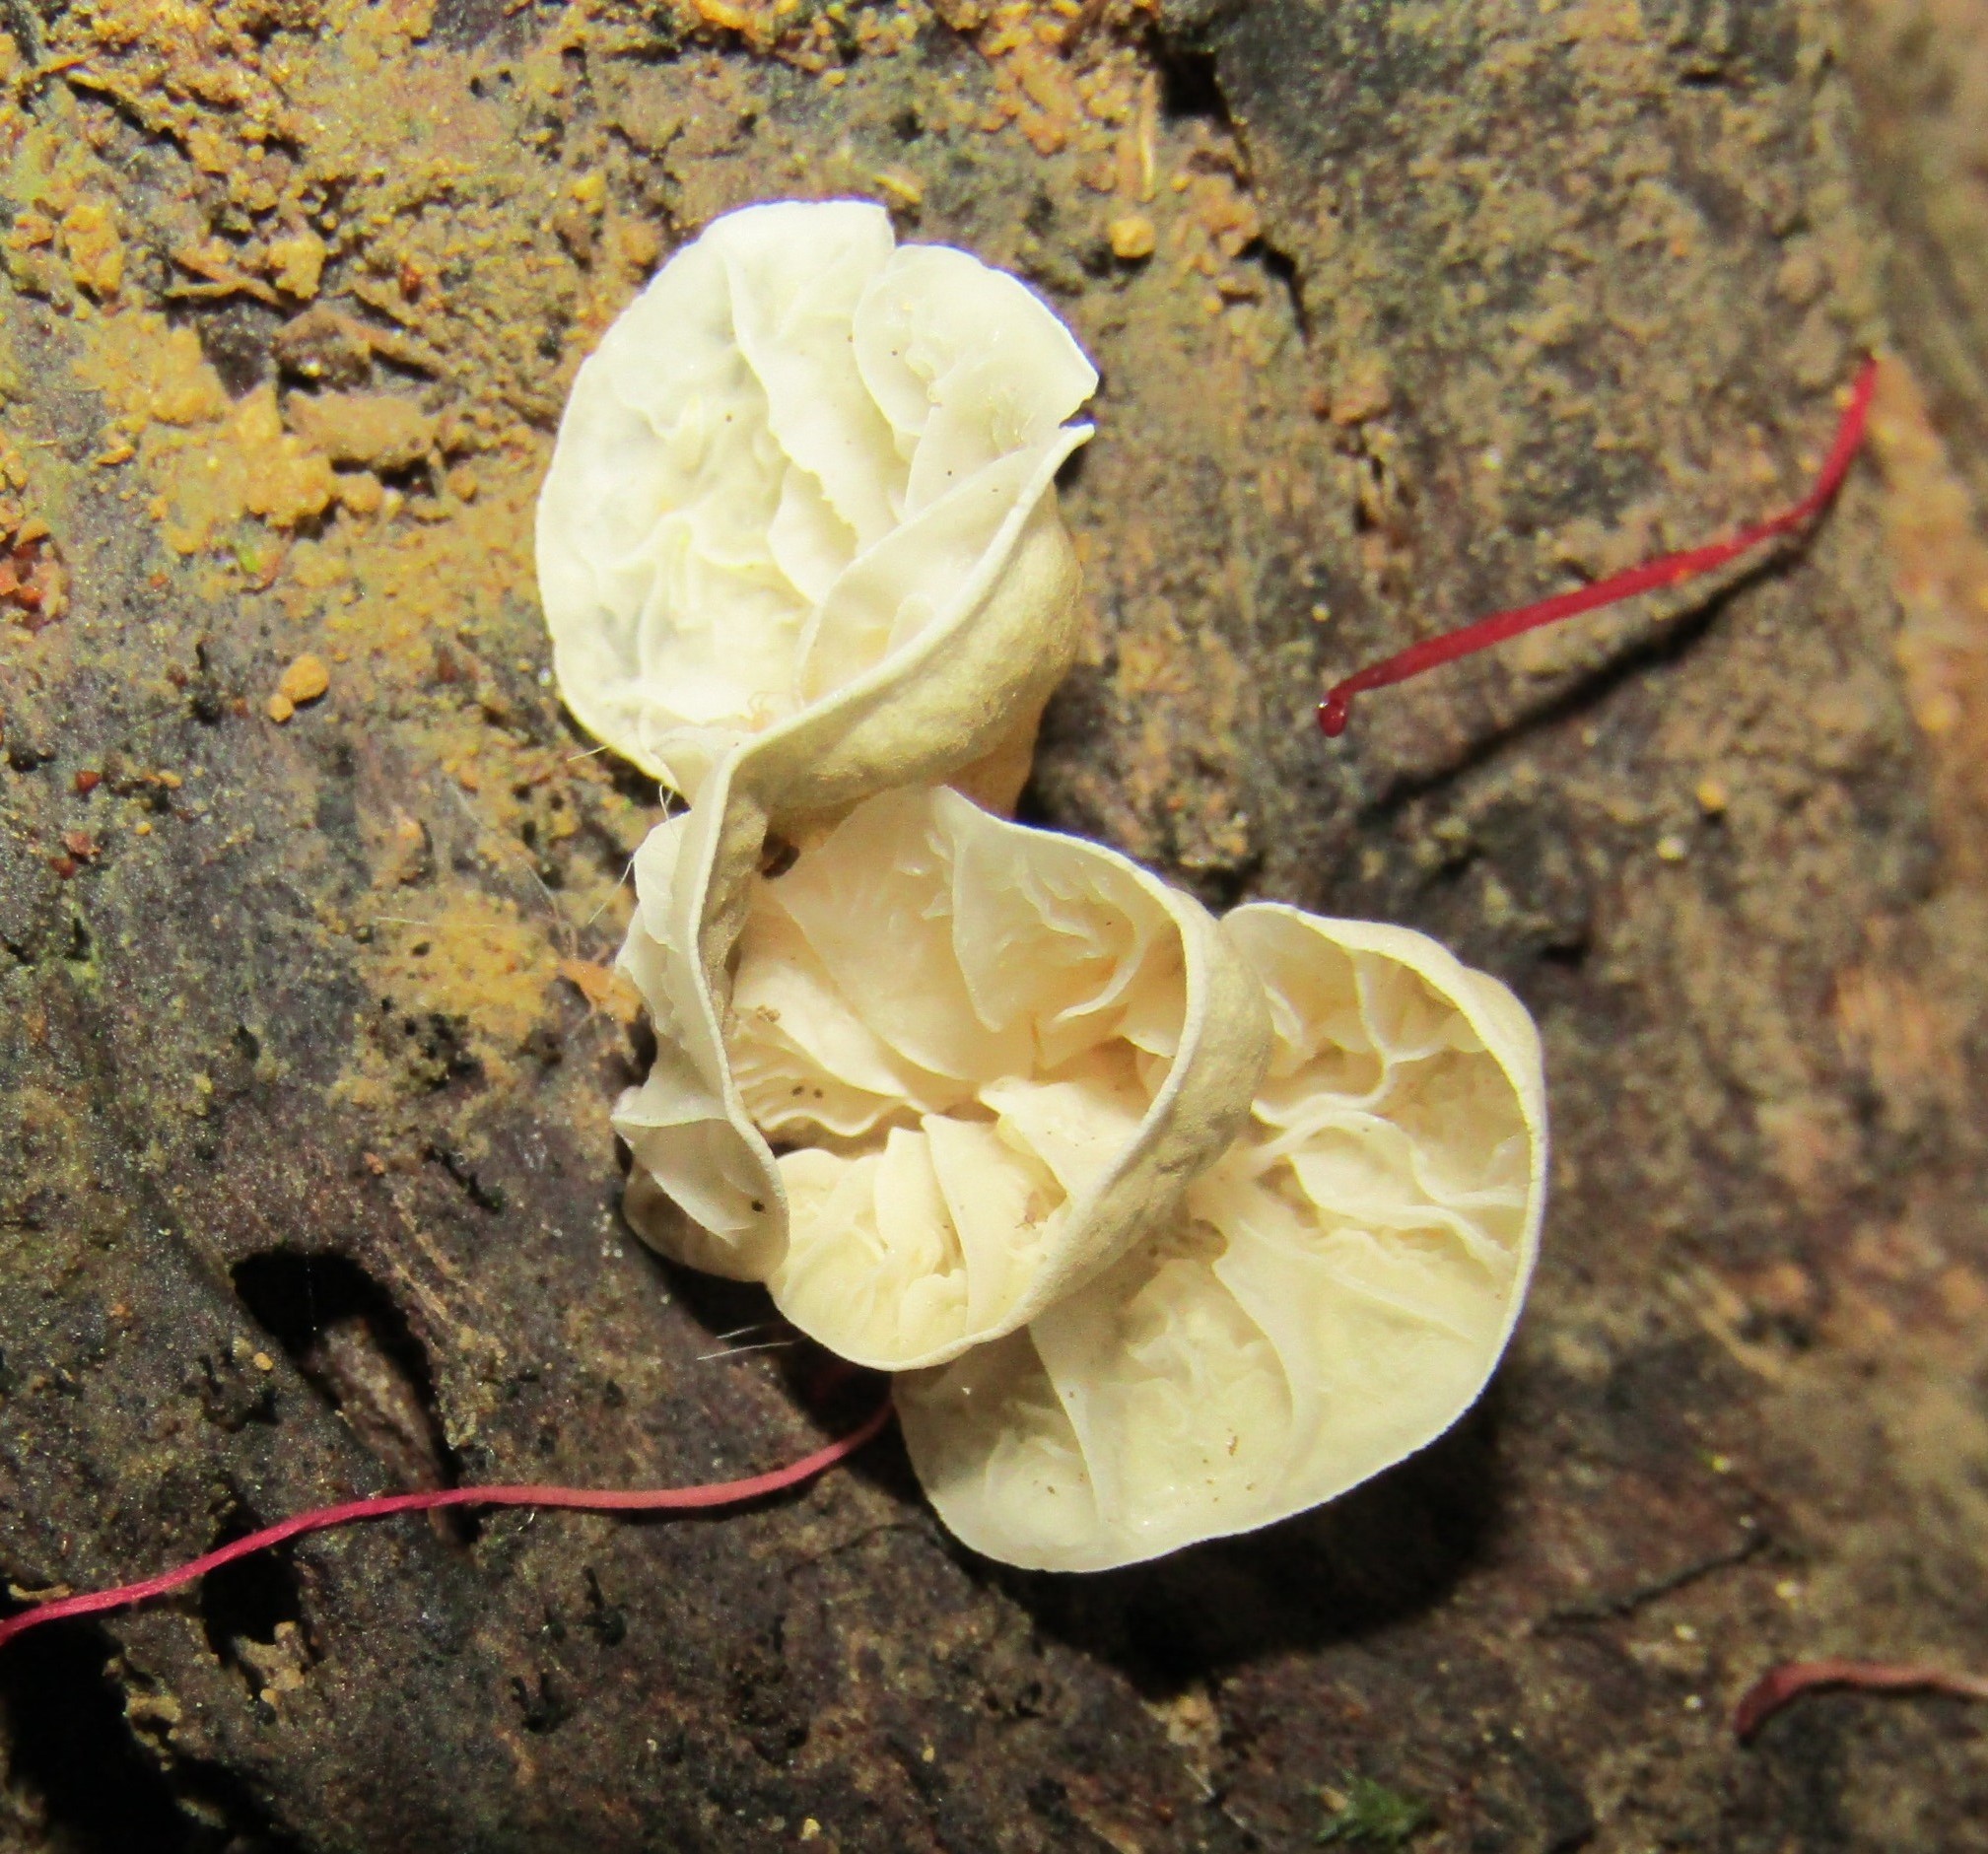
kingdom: Fungi
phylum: Basidiomycota
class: Agaricomycetes
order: Agaricales
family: Marasmiaceae
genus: Campanella
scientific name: Campanella tristis
